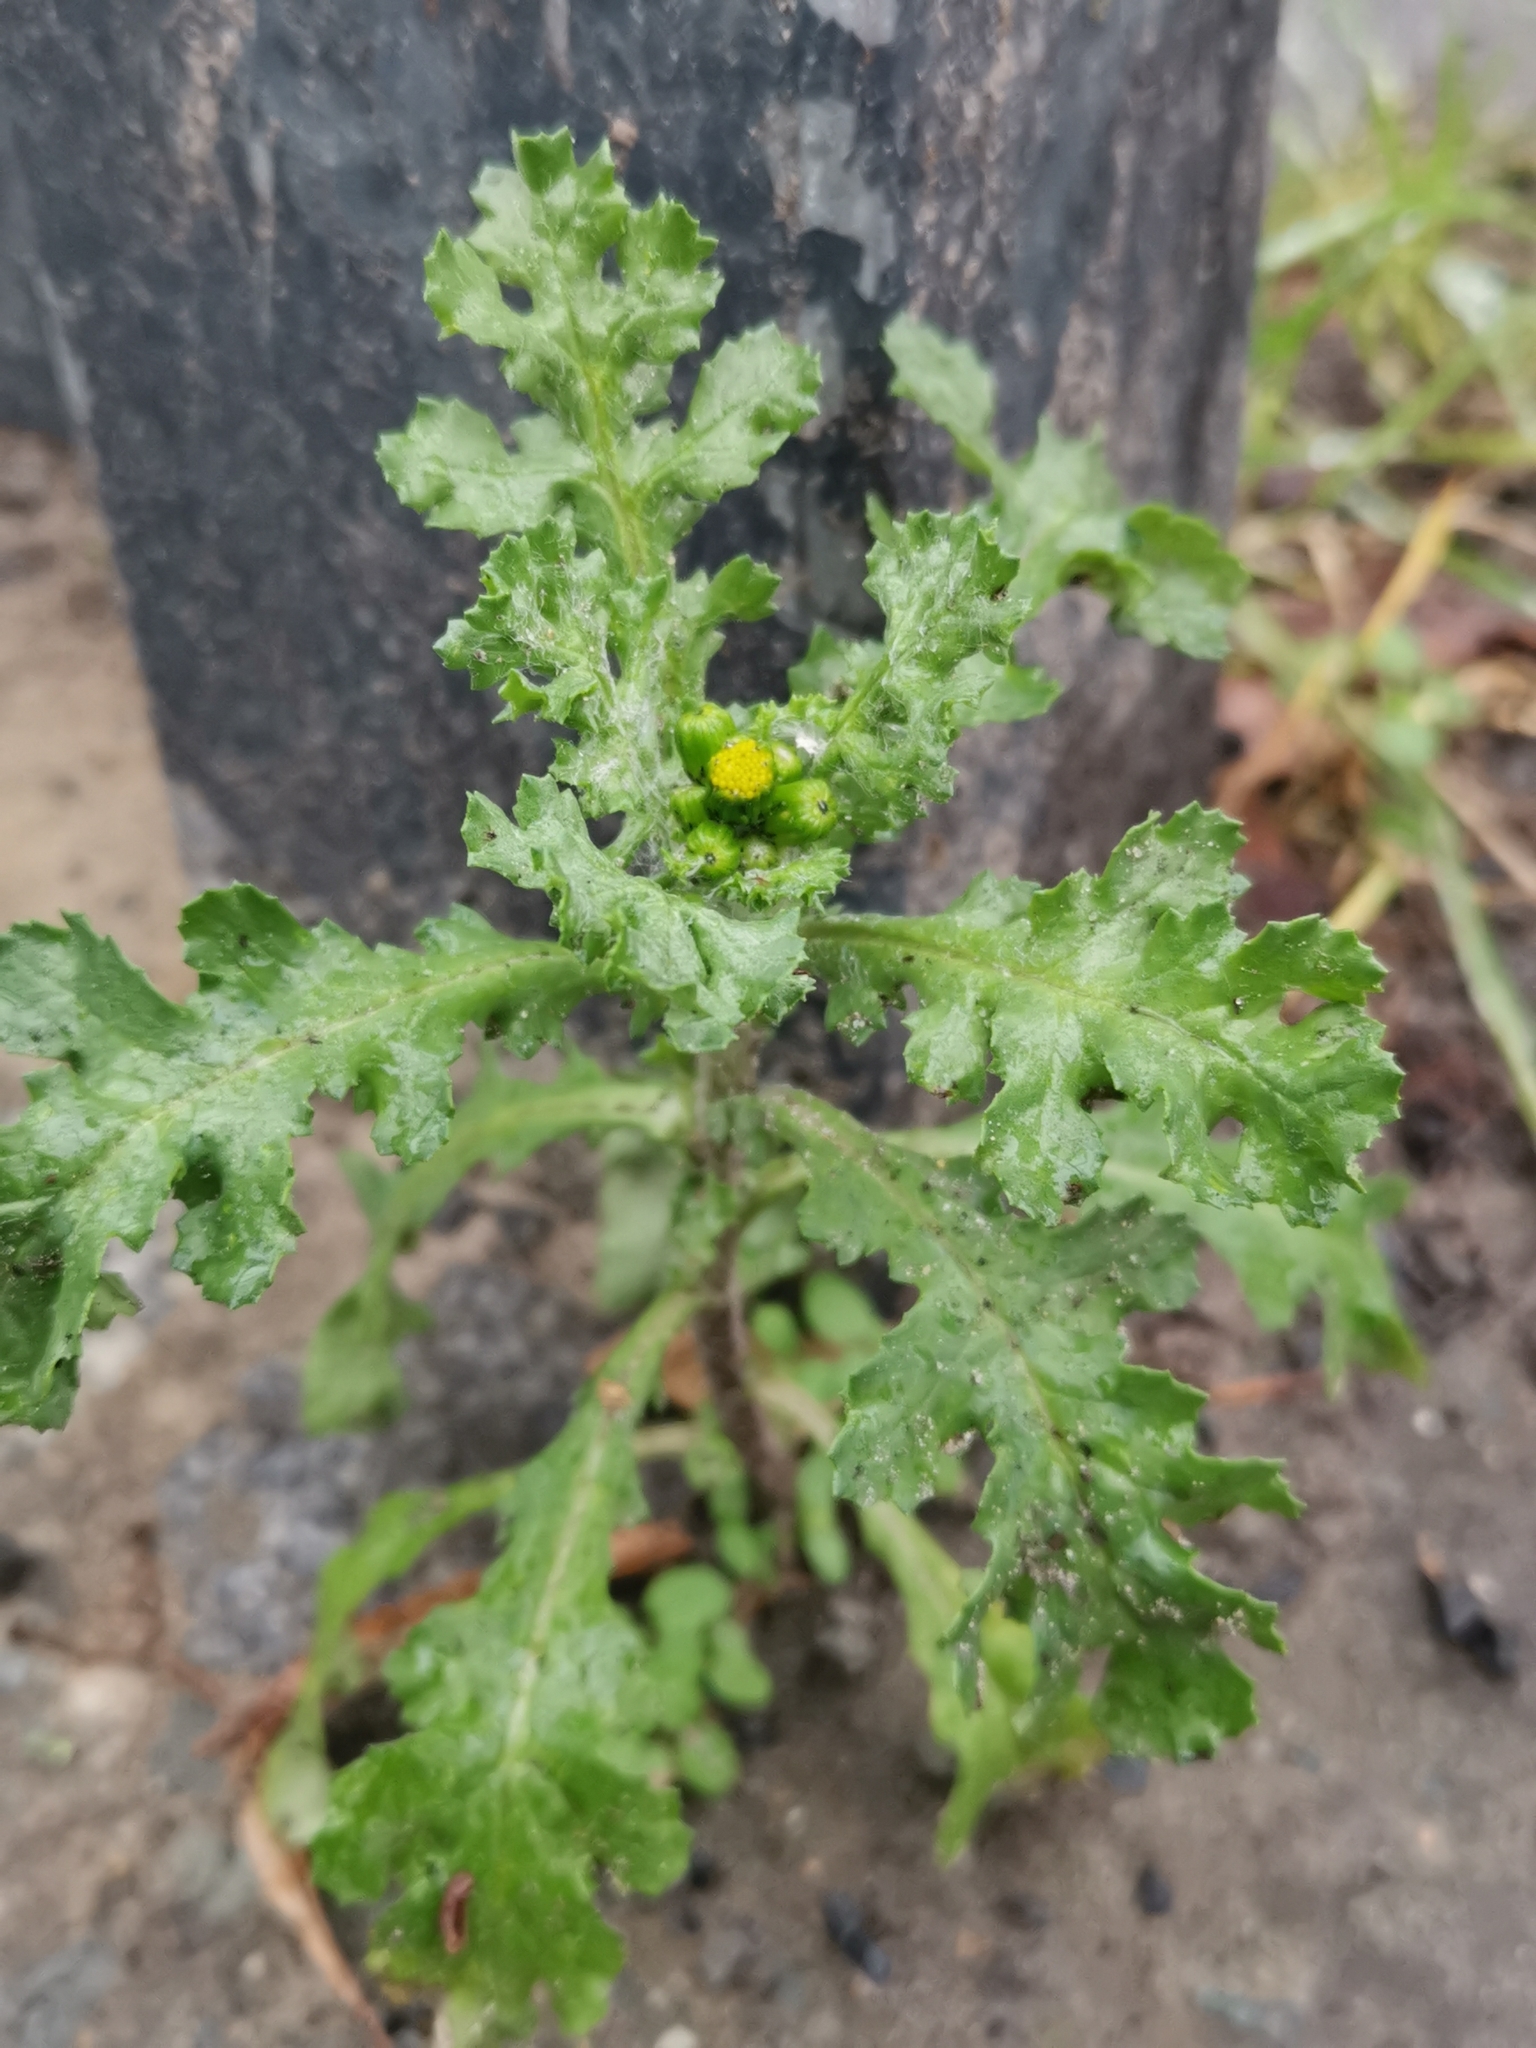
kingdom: Plantae
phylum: Tracheophyta
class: Magnoliopsida
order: Asterales
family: Asteraceae
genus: Senecio
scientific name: Senecio vulgaris
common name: Old-man-in-the-spring
